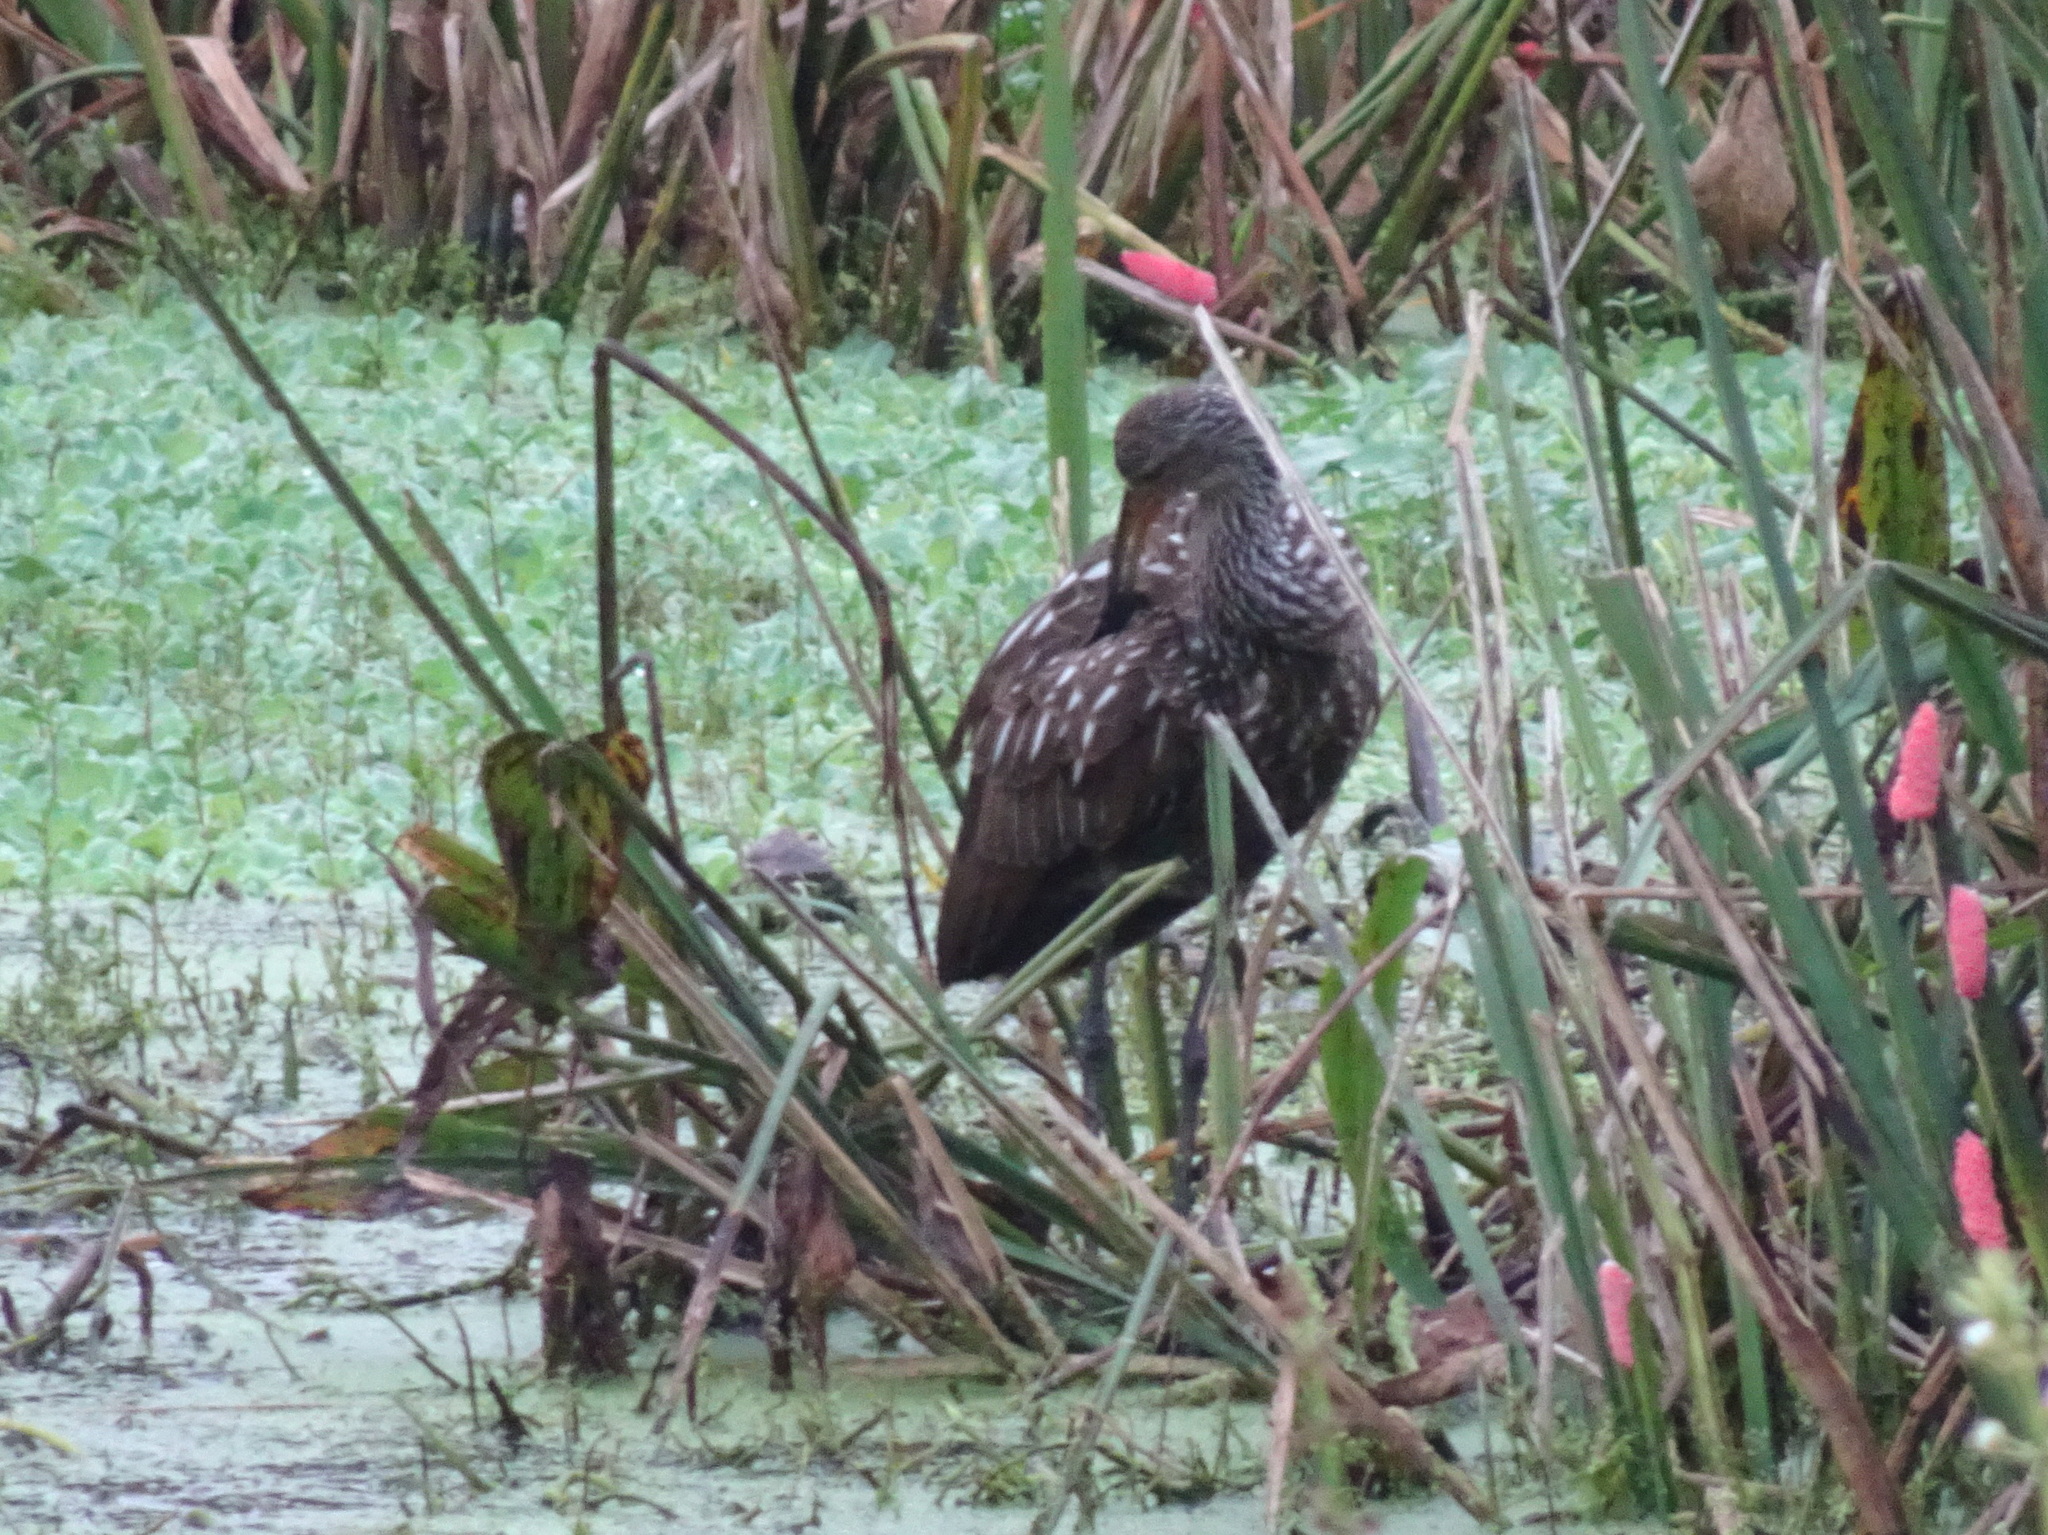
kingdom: Animalia
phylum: Chordata
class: Aves
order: Gruiformes
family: Aramidae
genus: Aramus
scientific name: Aramus guarauna
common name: Limpkin
